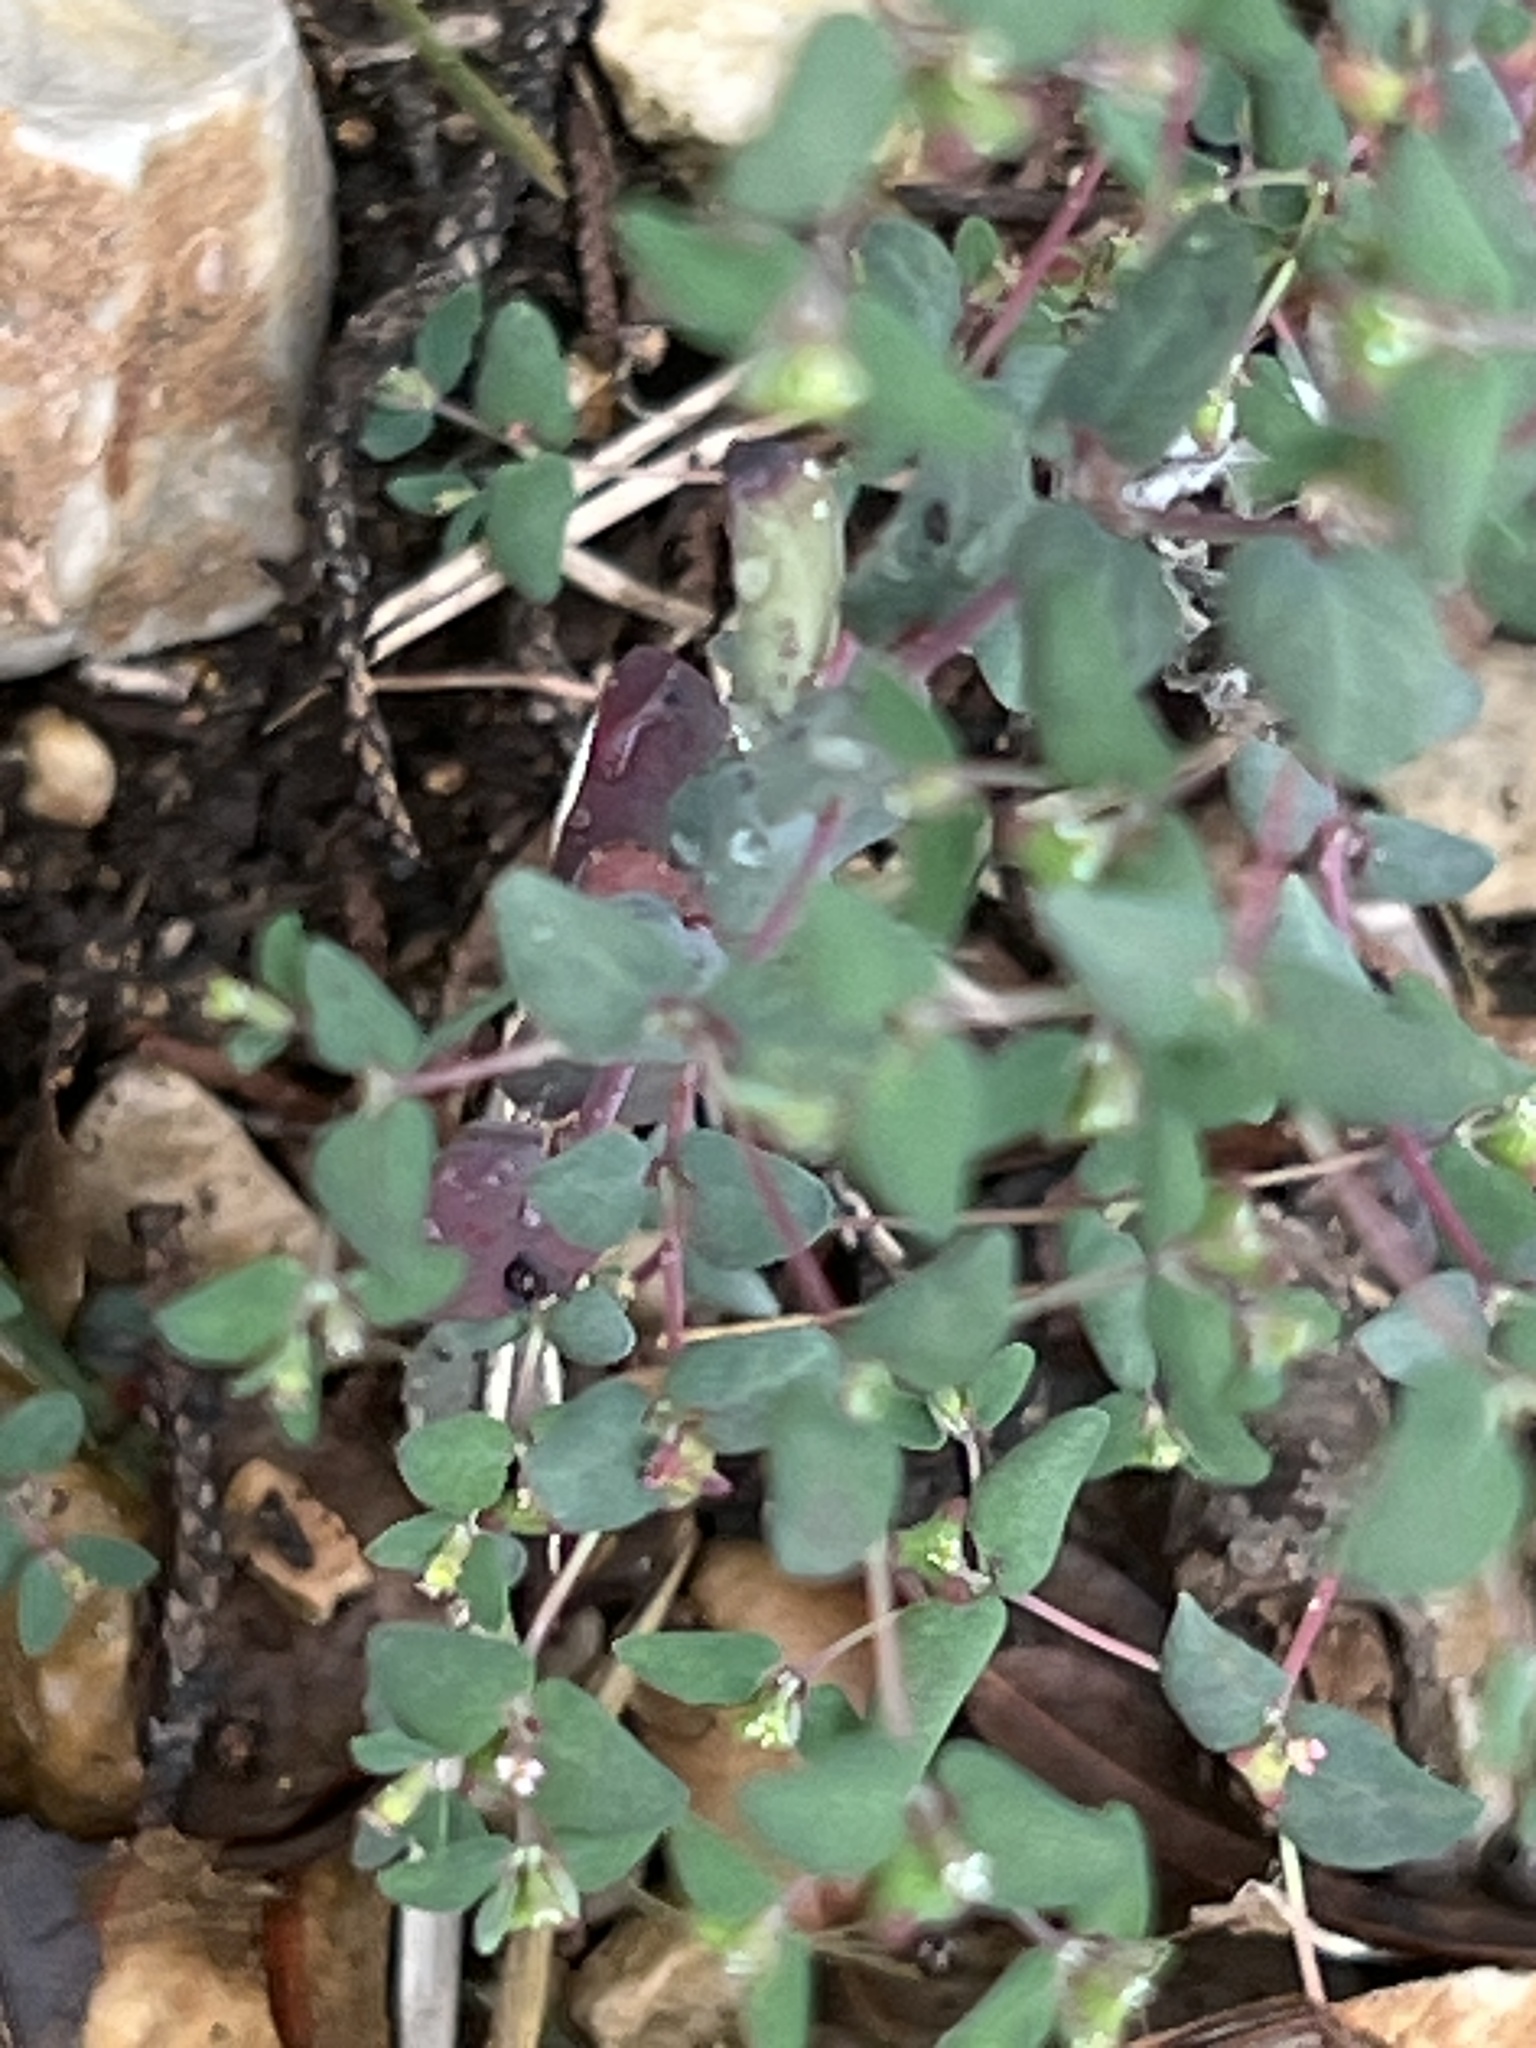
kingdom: Plantae
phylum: Tracheophyta
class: Magnoliopsida
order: Malpighiales
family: Euphorbiaceae
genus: Euphorbia
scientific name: Euphorbia villifera
